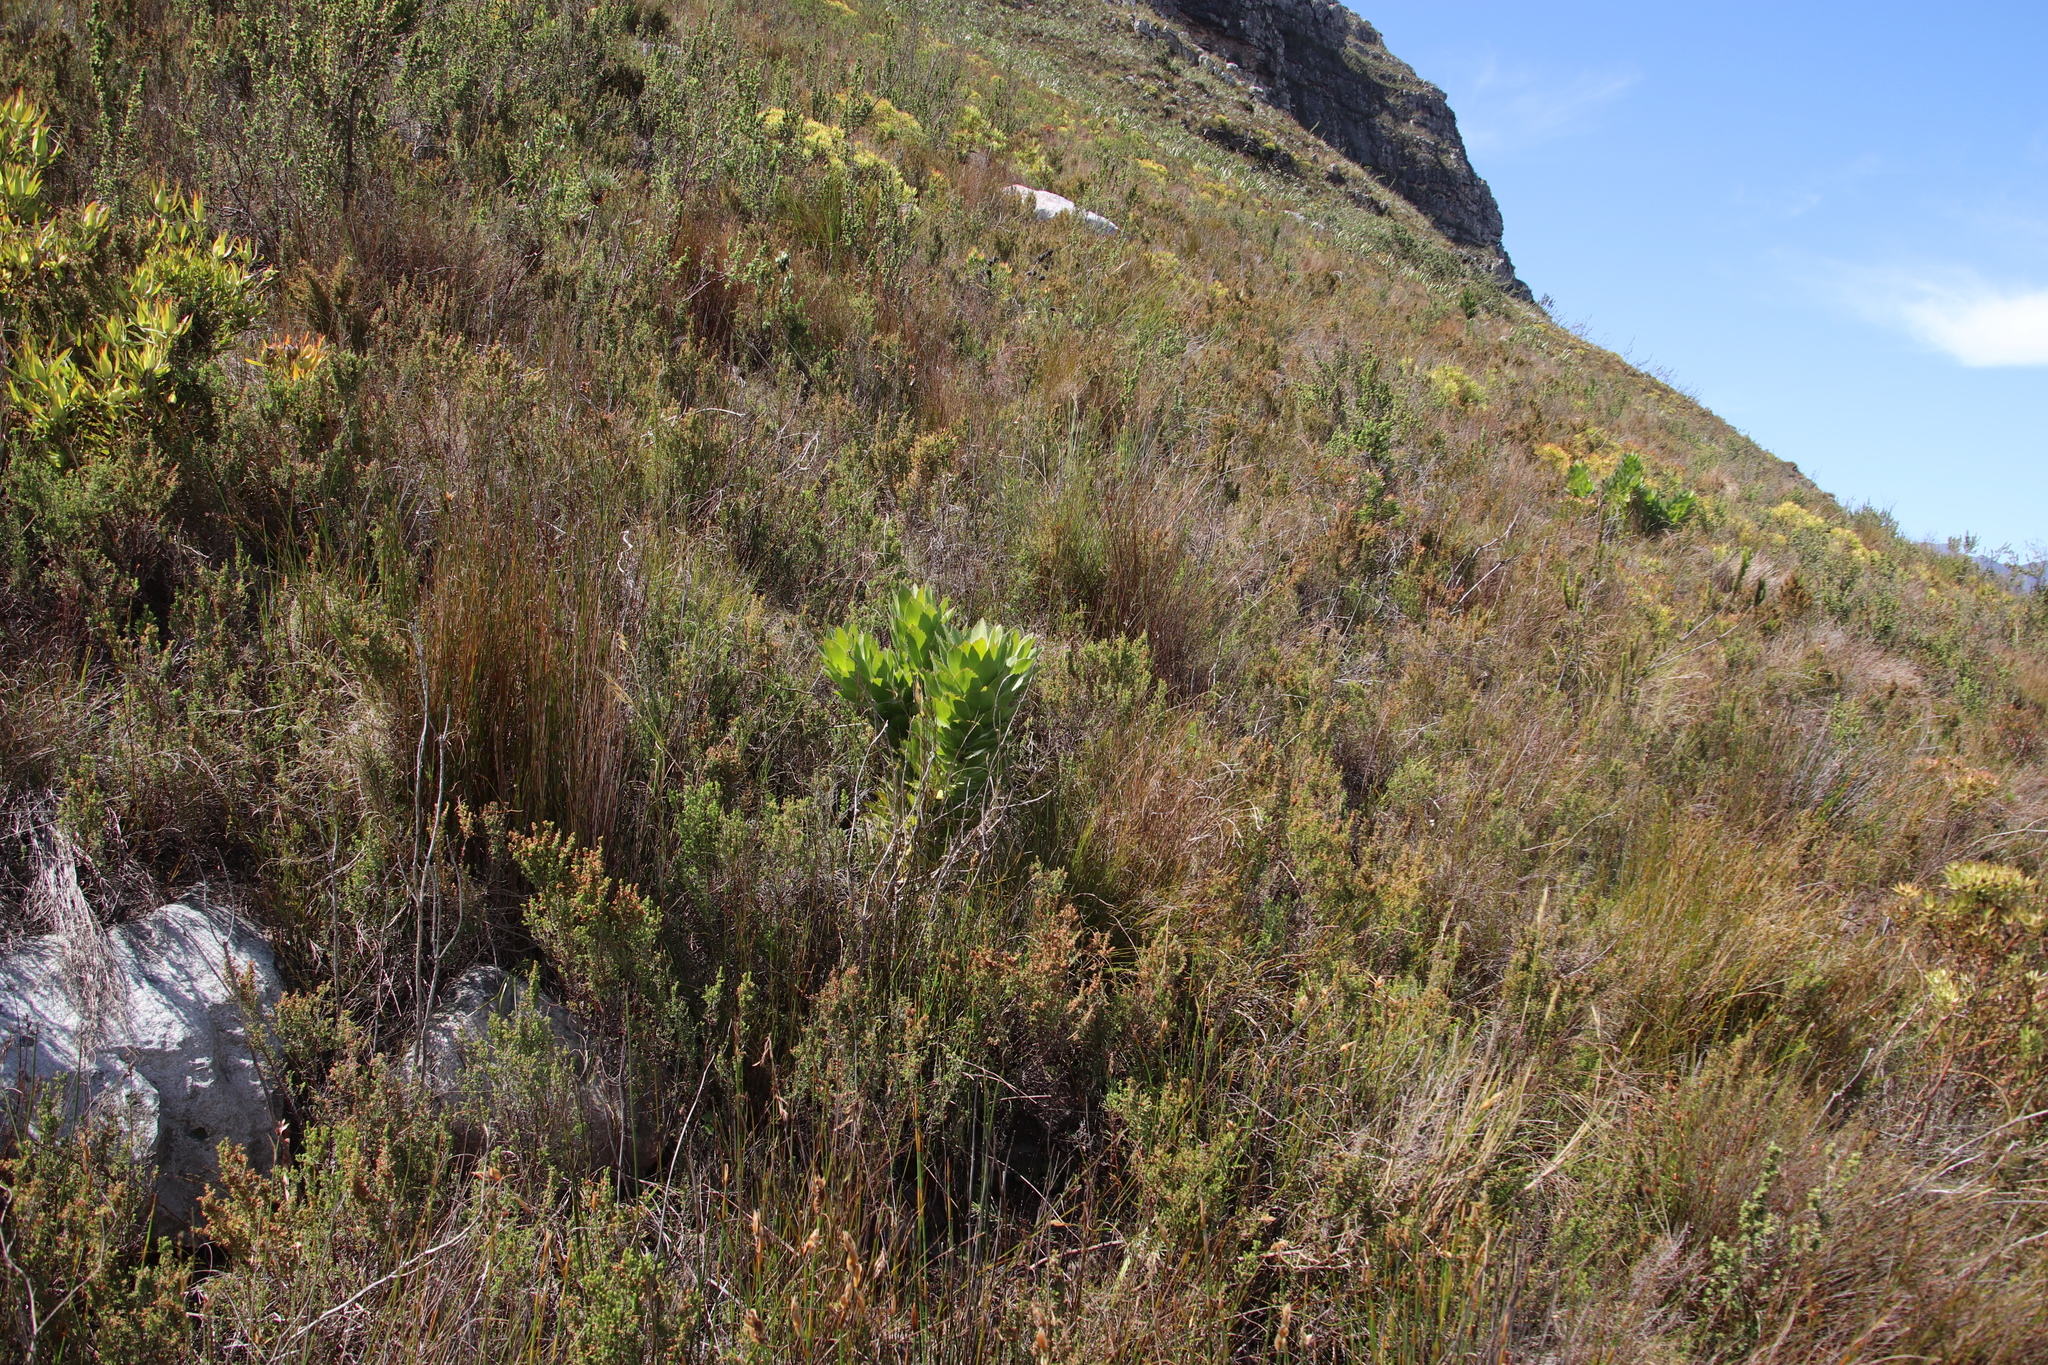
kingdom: Plantae
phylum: Tracheophyta
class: Magnoliopsida
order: Proteales
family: Proteaceae
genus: Leucospermum
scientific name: Leucospermum conocarpodendron
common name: Tree pincushion
